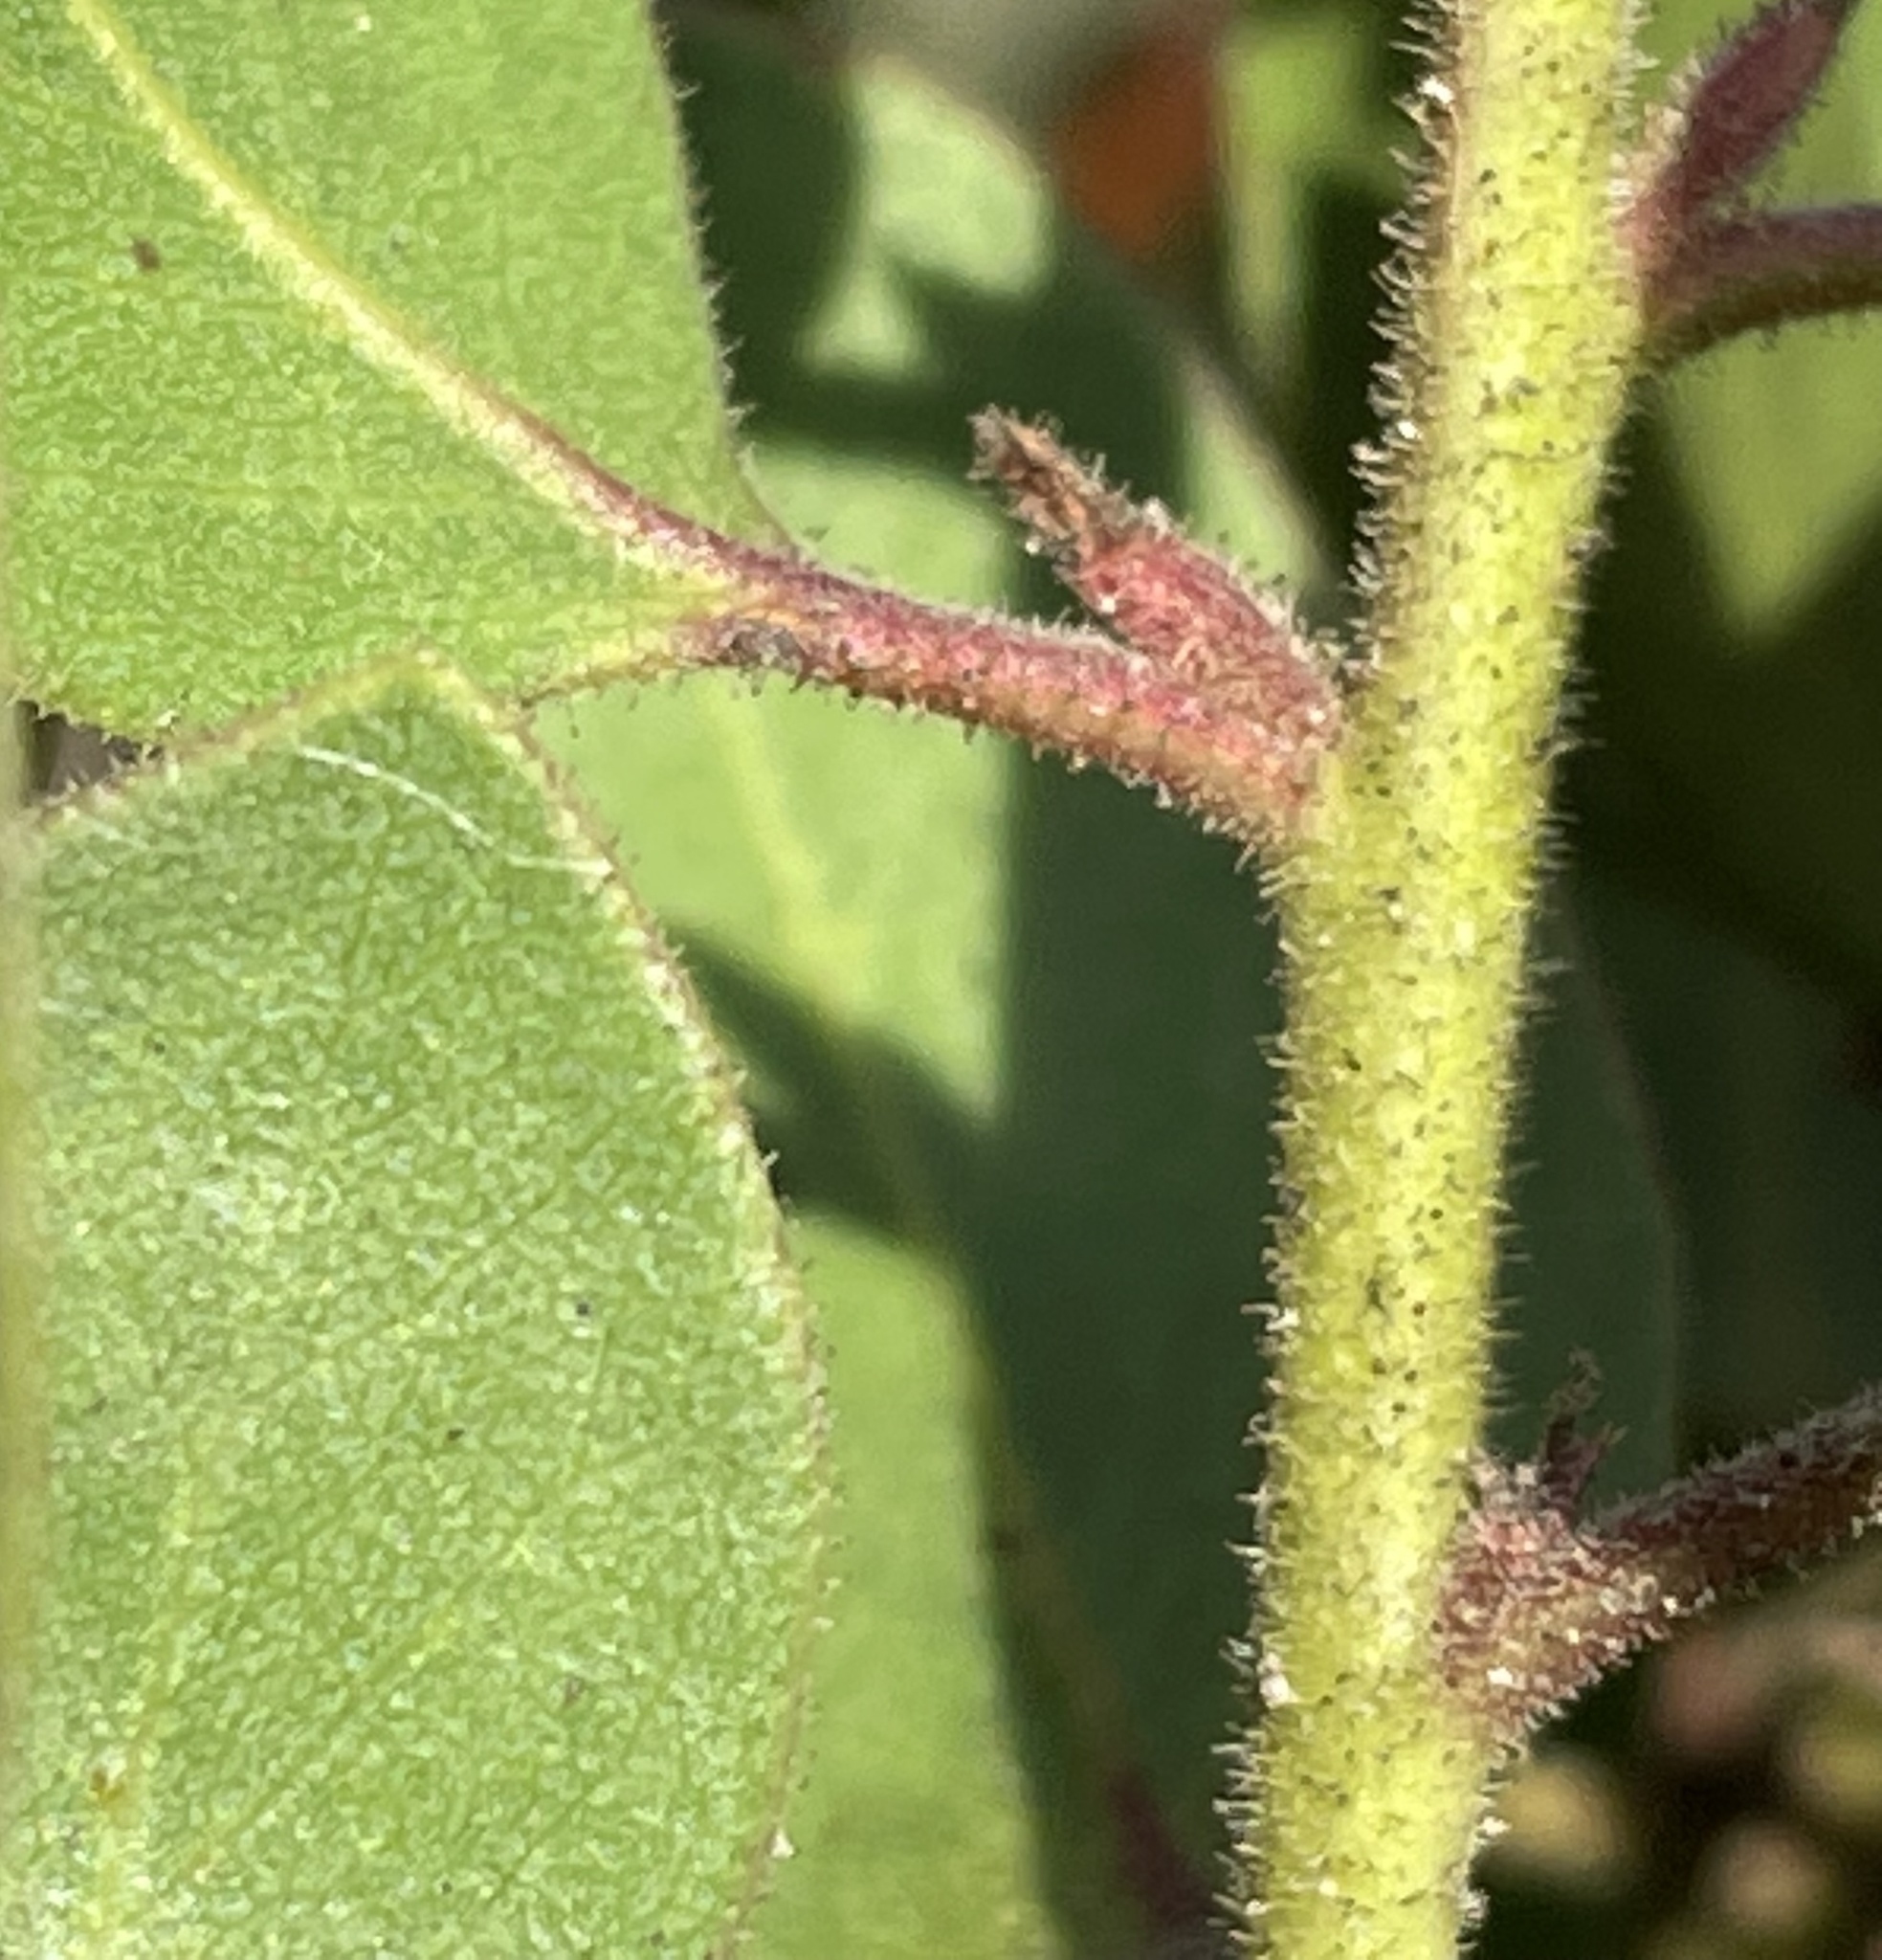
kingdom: Plantae
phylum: Tracheophyta
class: Magnoliopsida
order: Ericales
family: Ericaceae
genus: Arctostaphylos
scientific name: Arctostaphylos montereyensis
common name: Monterey manzanita
